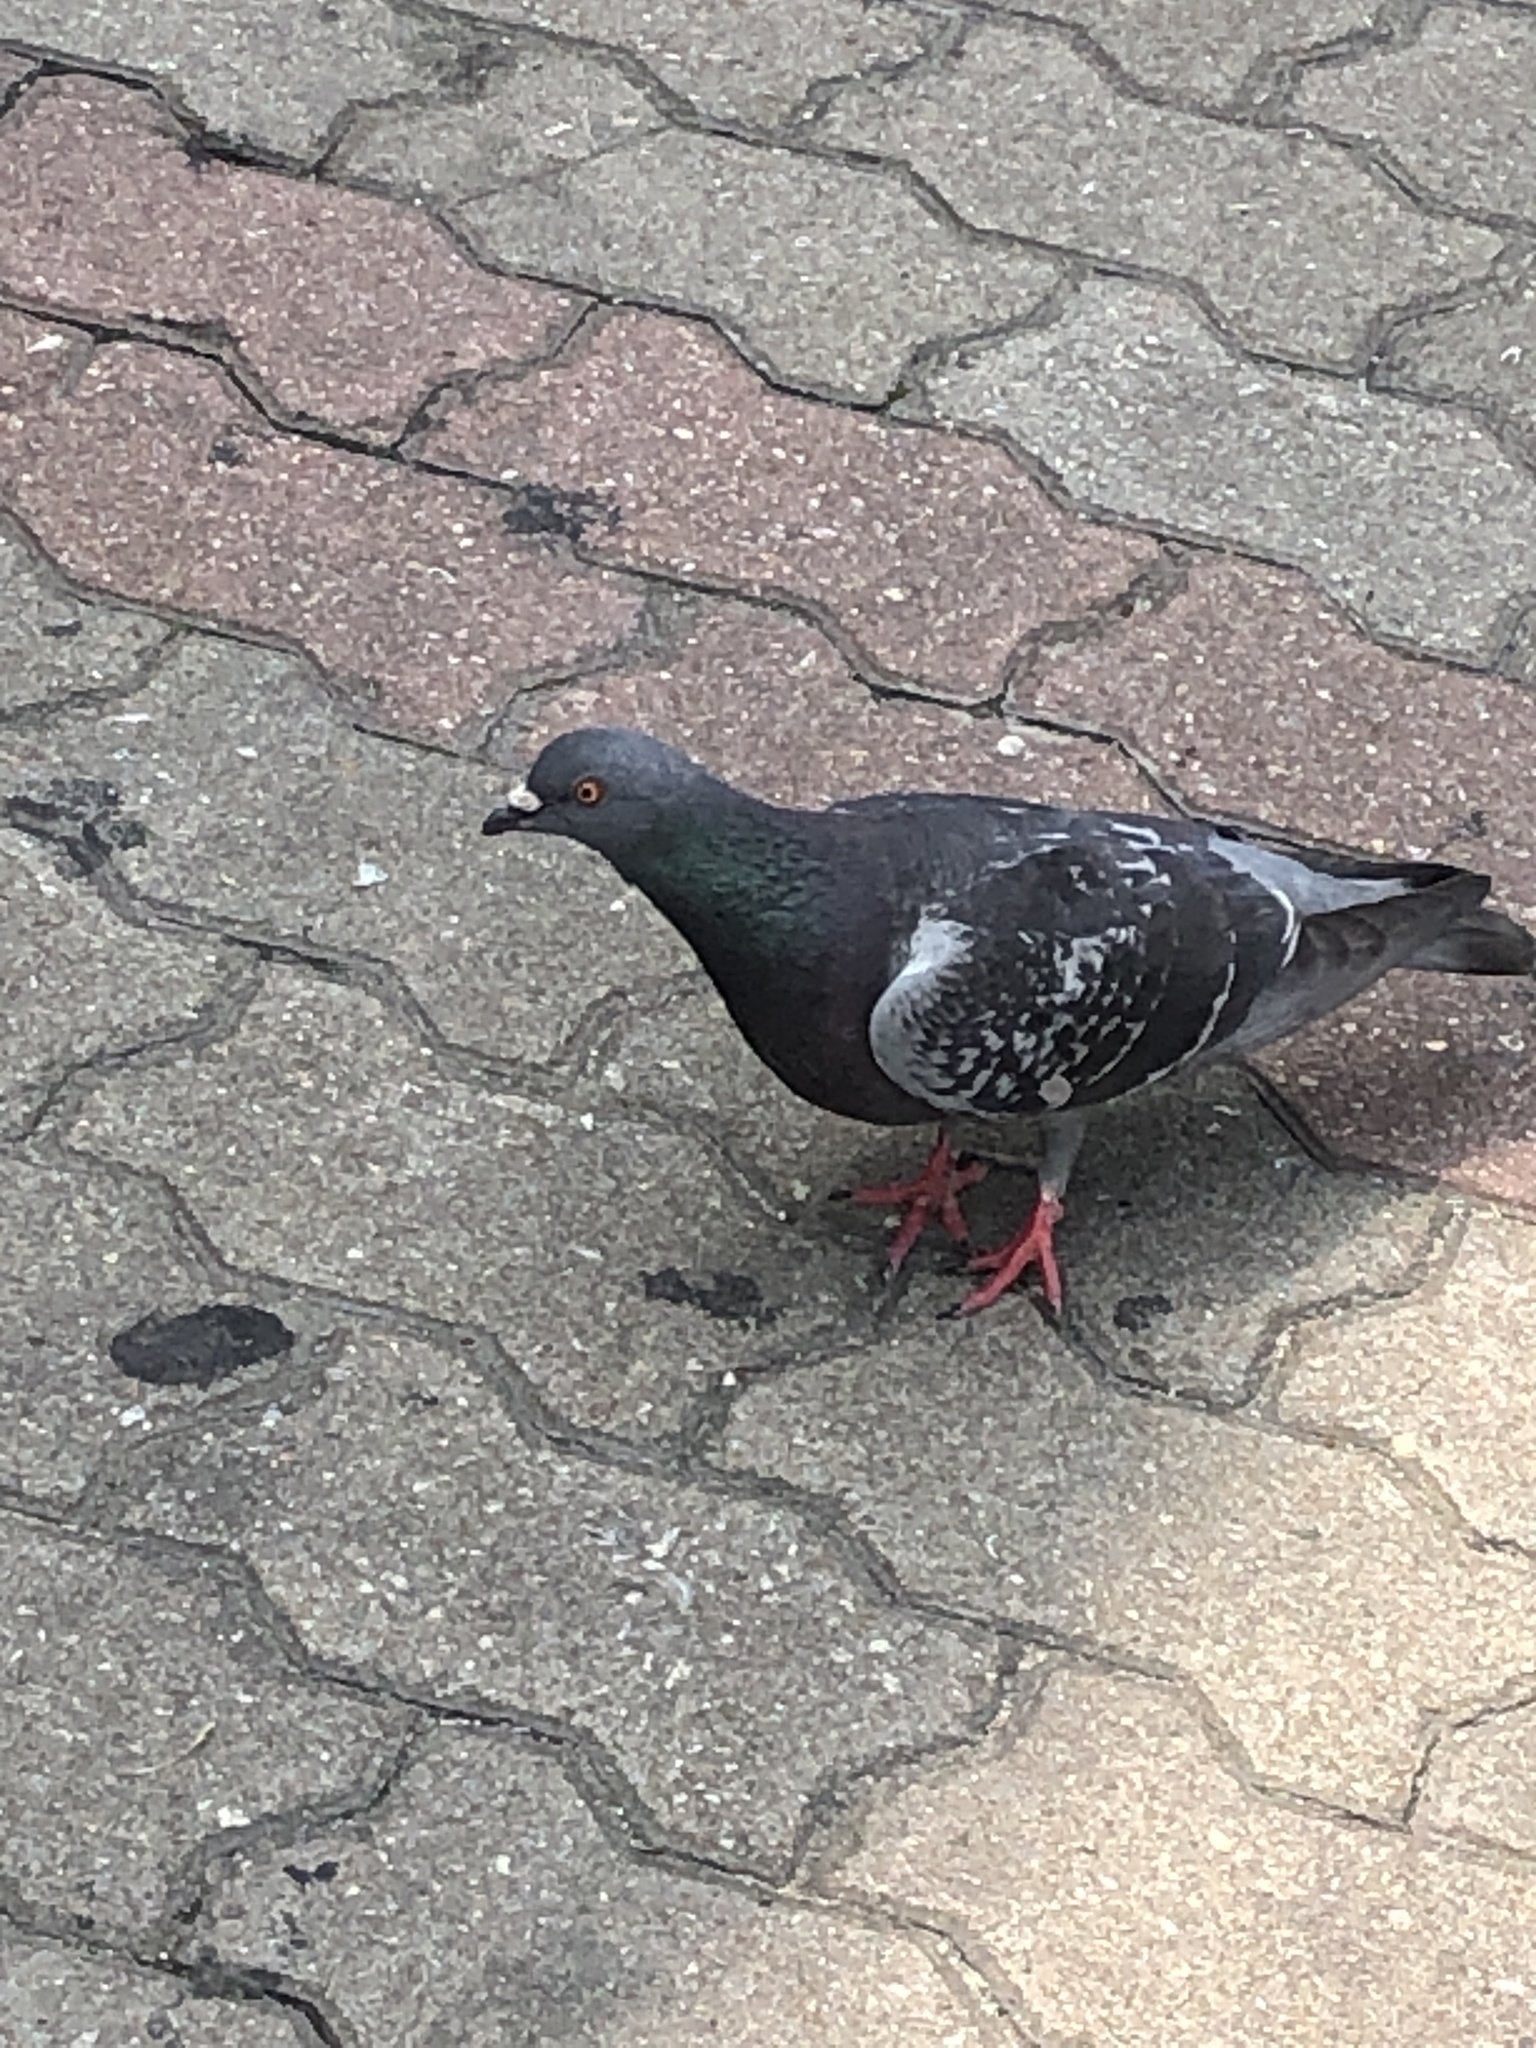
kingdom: Animalia
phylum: Chordata
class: Aves
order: Columbiformes
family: Columbidae
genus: Columba
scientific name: Columba livia
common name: Rock pigeon
